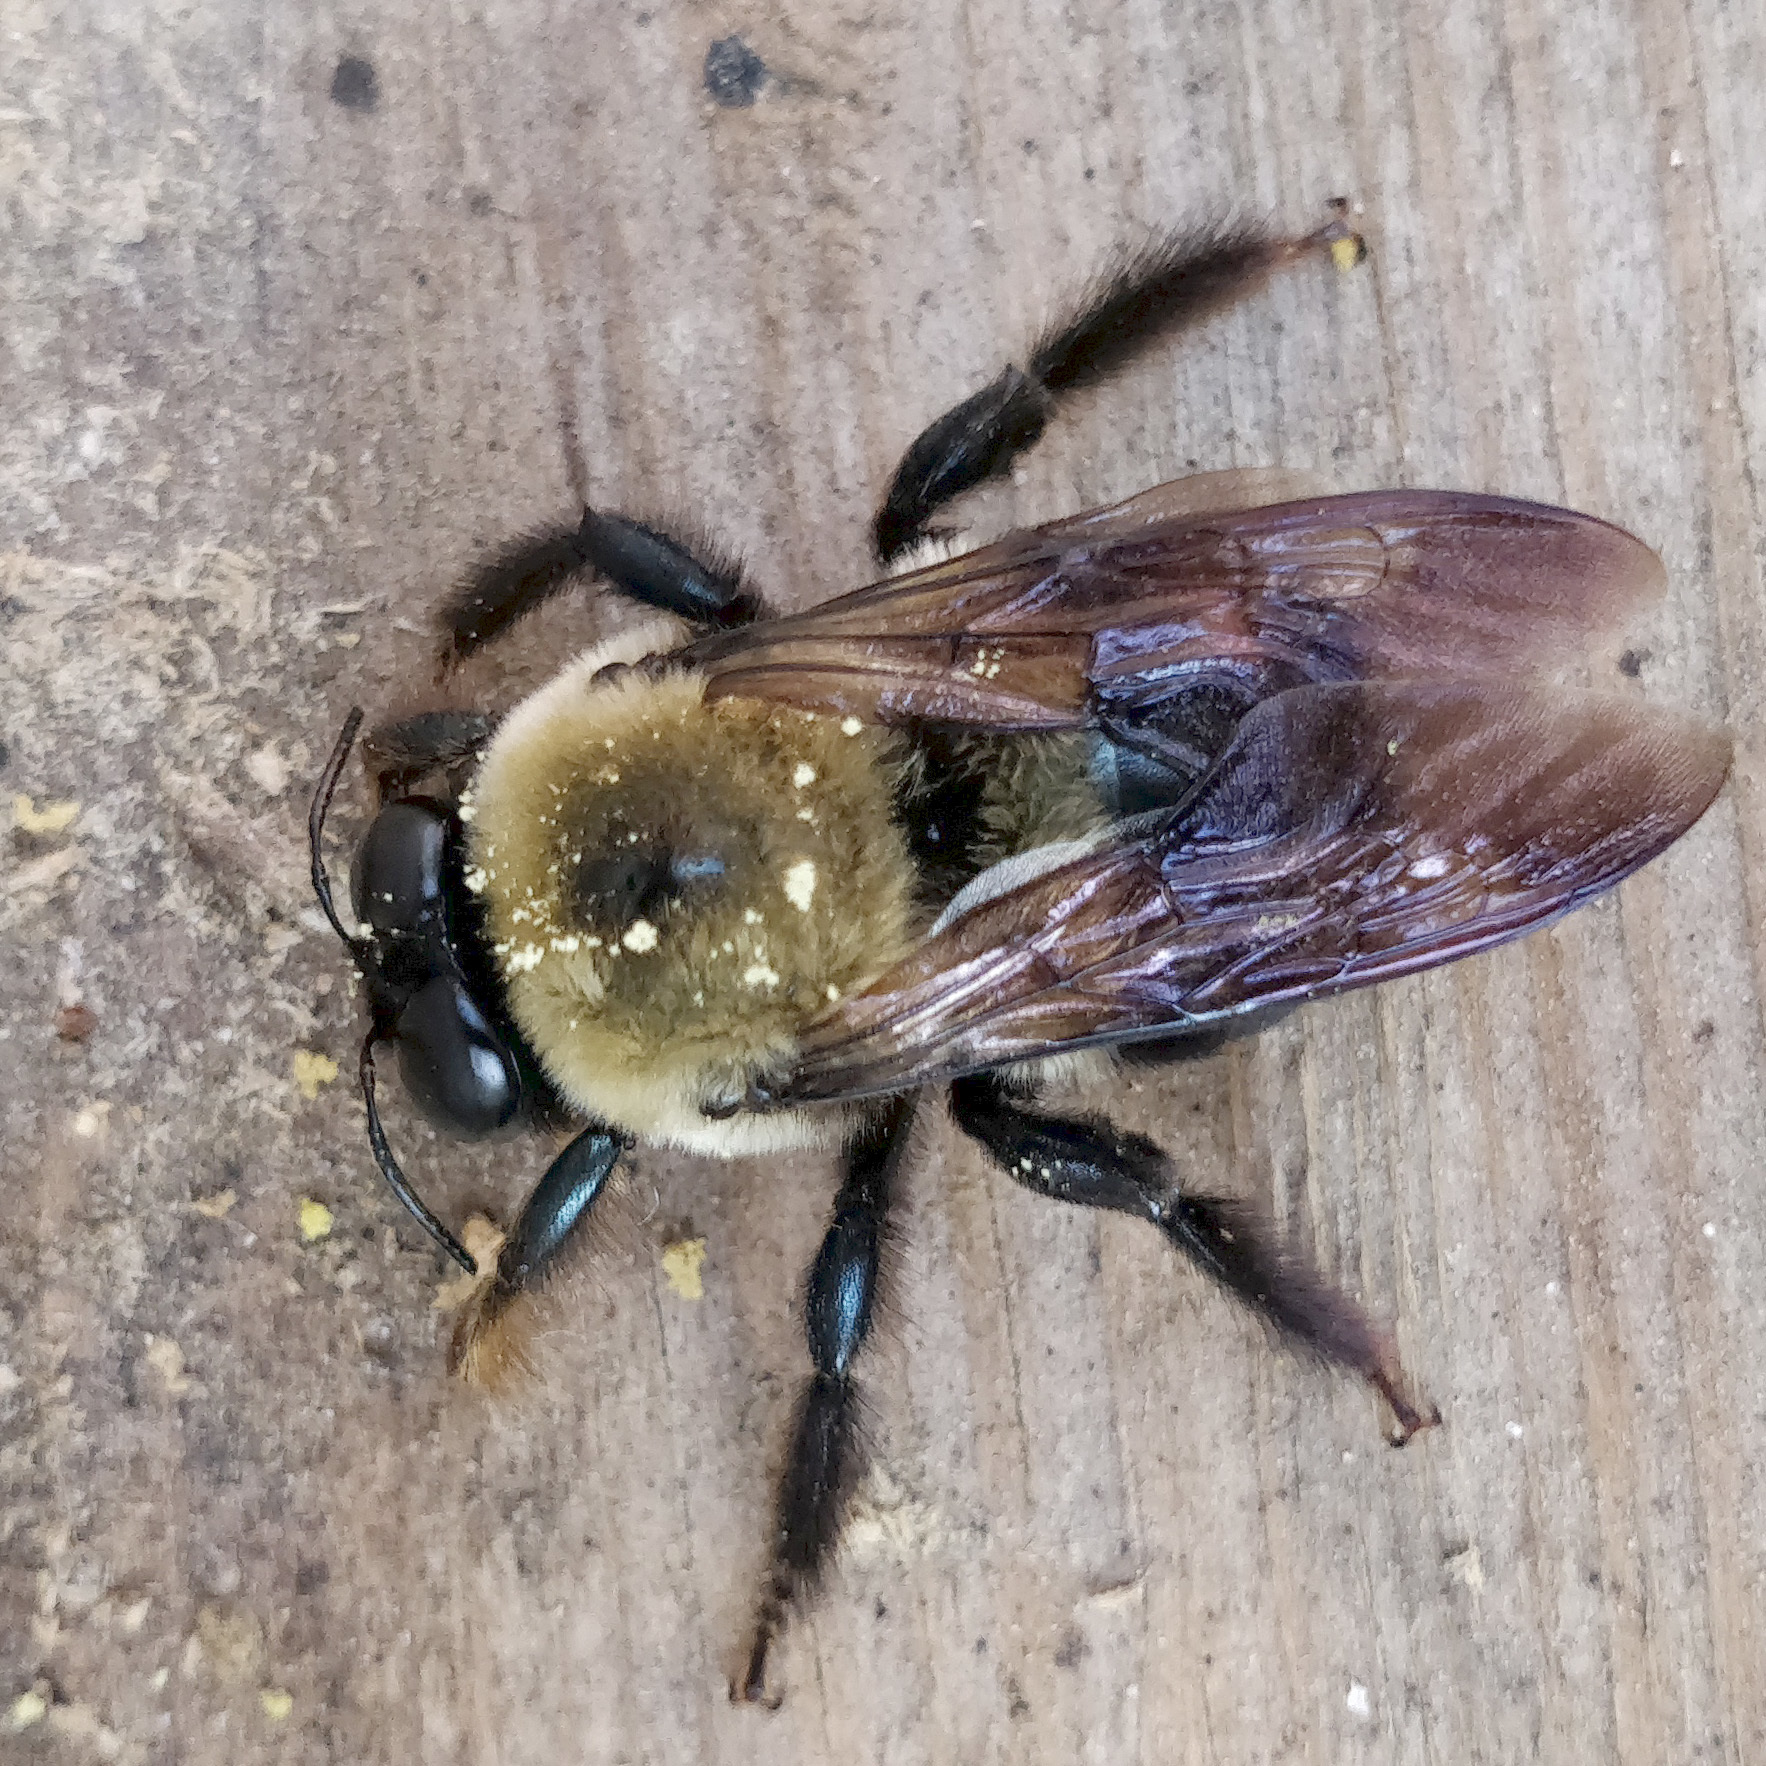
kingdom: Animalia
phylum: Arthropoda
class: Insecta
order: Hymenoptera
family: Apidae
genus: Xylocopa
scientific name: Xylocopa virginica
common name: Carpenter bee
